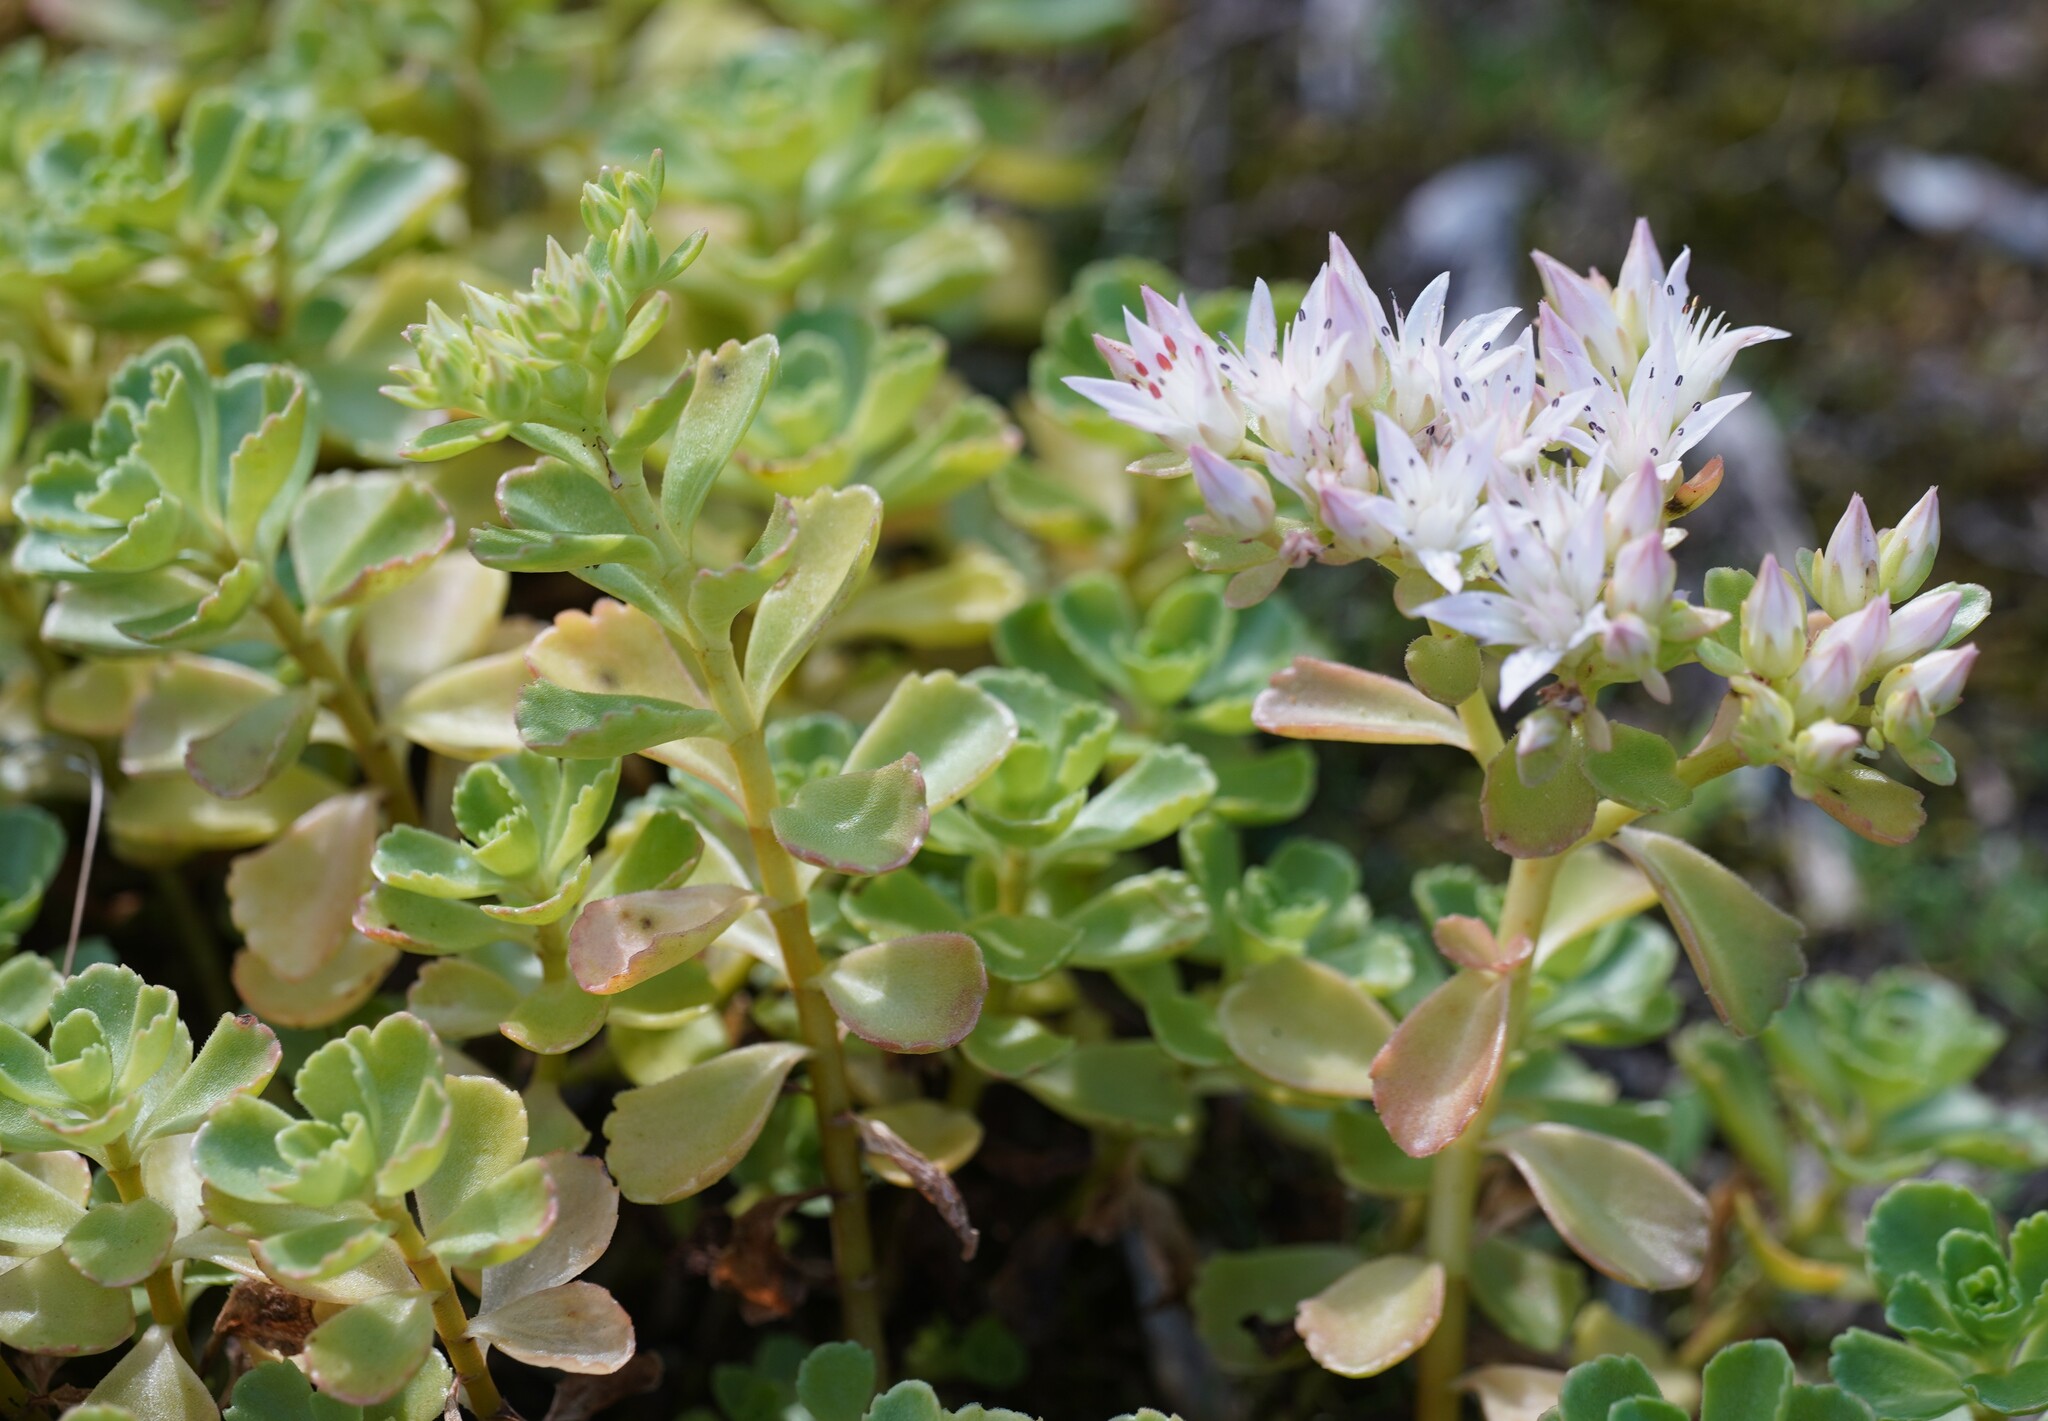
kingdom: Plantae
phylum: Tracheophyta
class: Magnoliopsida
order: Saxifragales
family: Crassulaceae
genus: Phedimus
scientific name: Phedimus spurius
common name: Caucasian stonecrop
